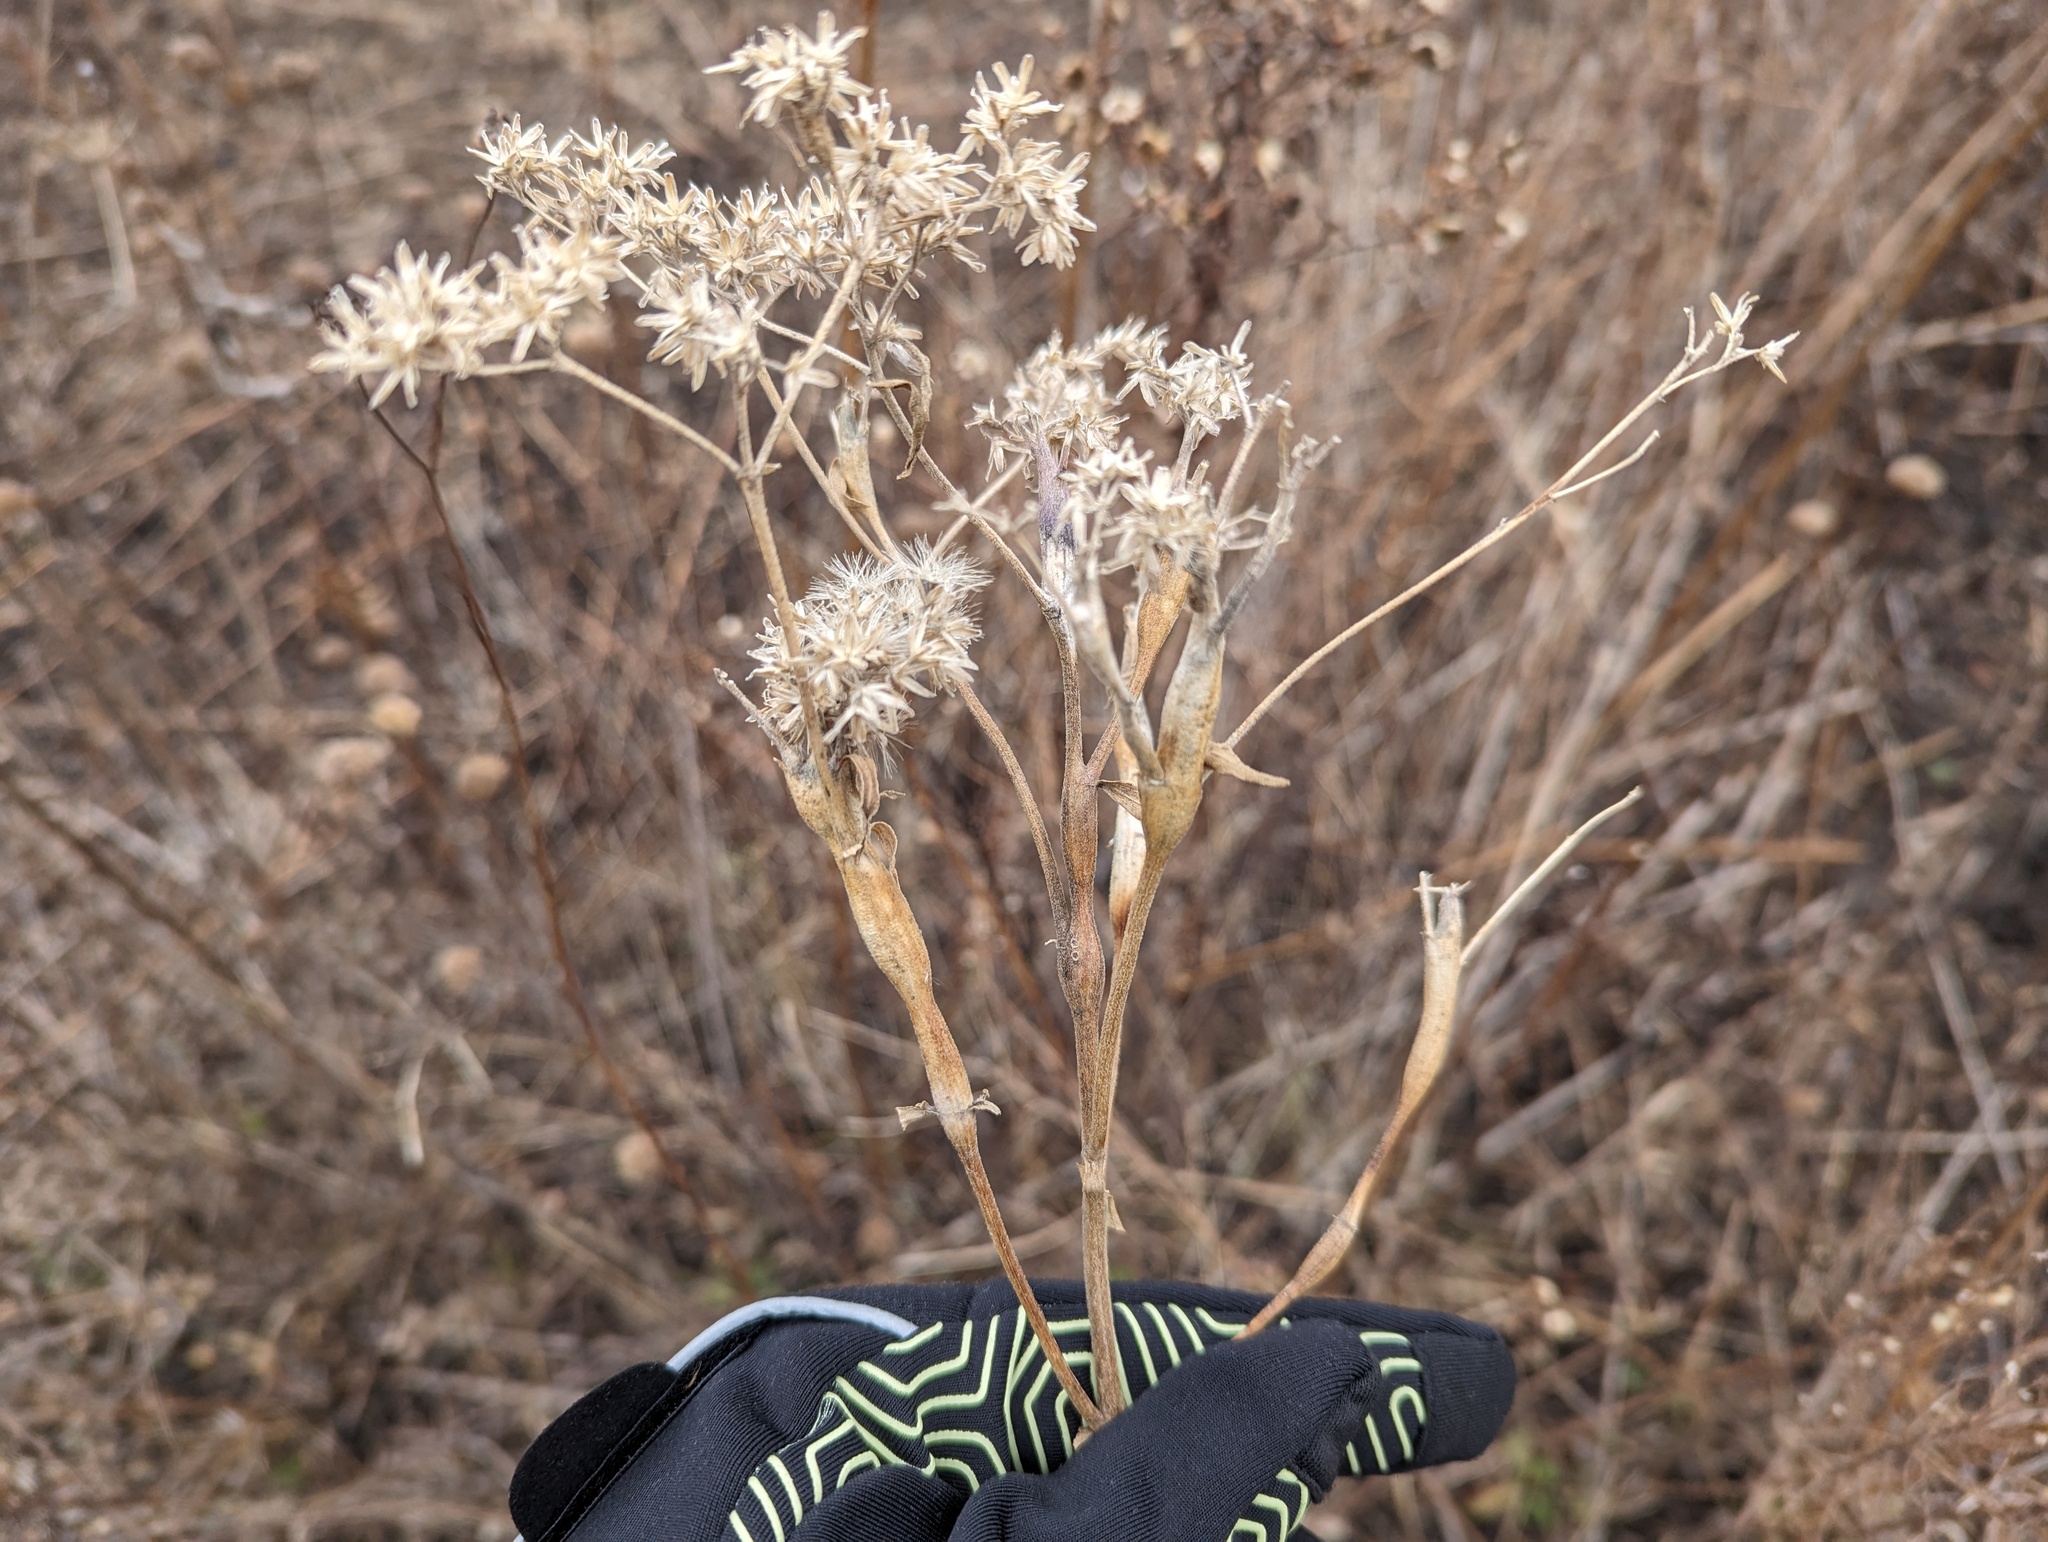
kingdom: Animalia
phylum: Arthropoda
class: Insecta
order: Diptera
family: Cecidomyiidae
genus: Neolasioptera
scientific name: Neolasioptera perfoliata
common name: Boneset stem midge
